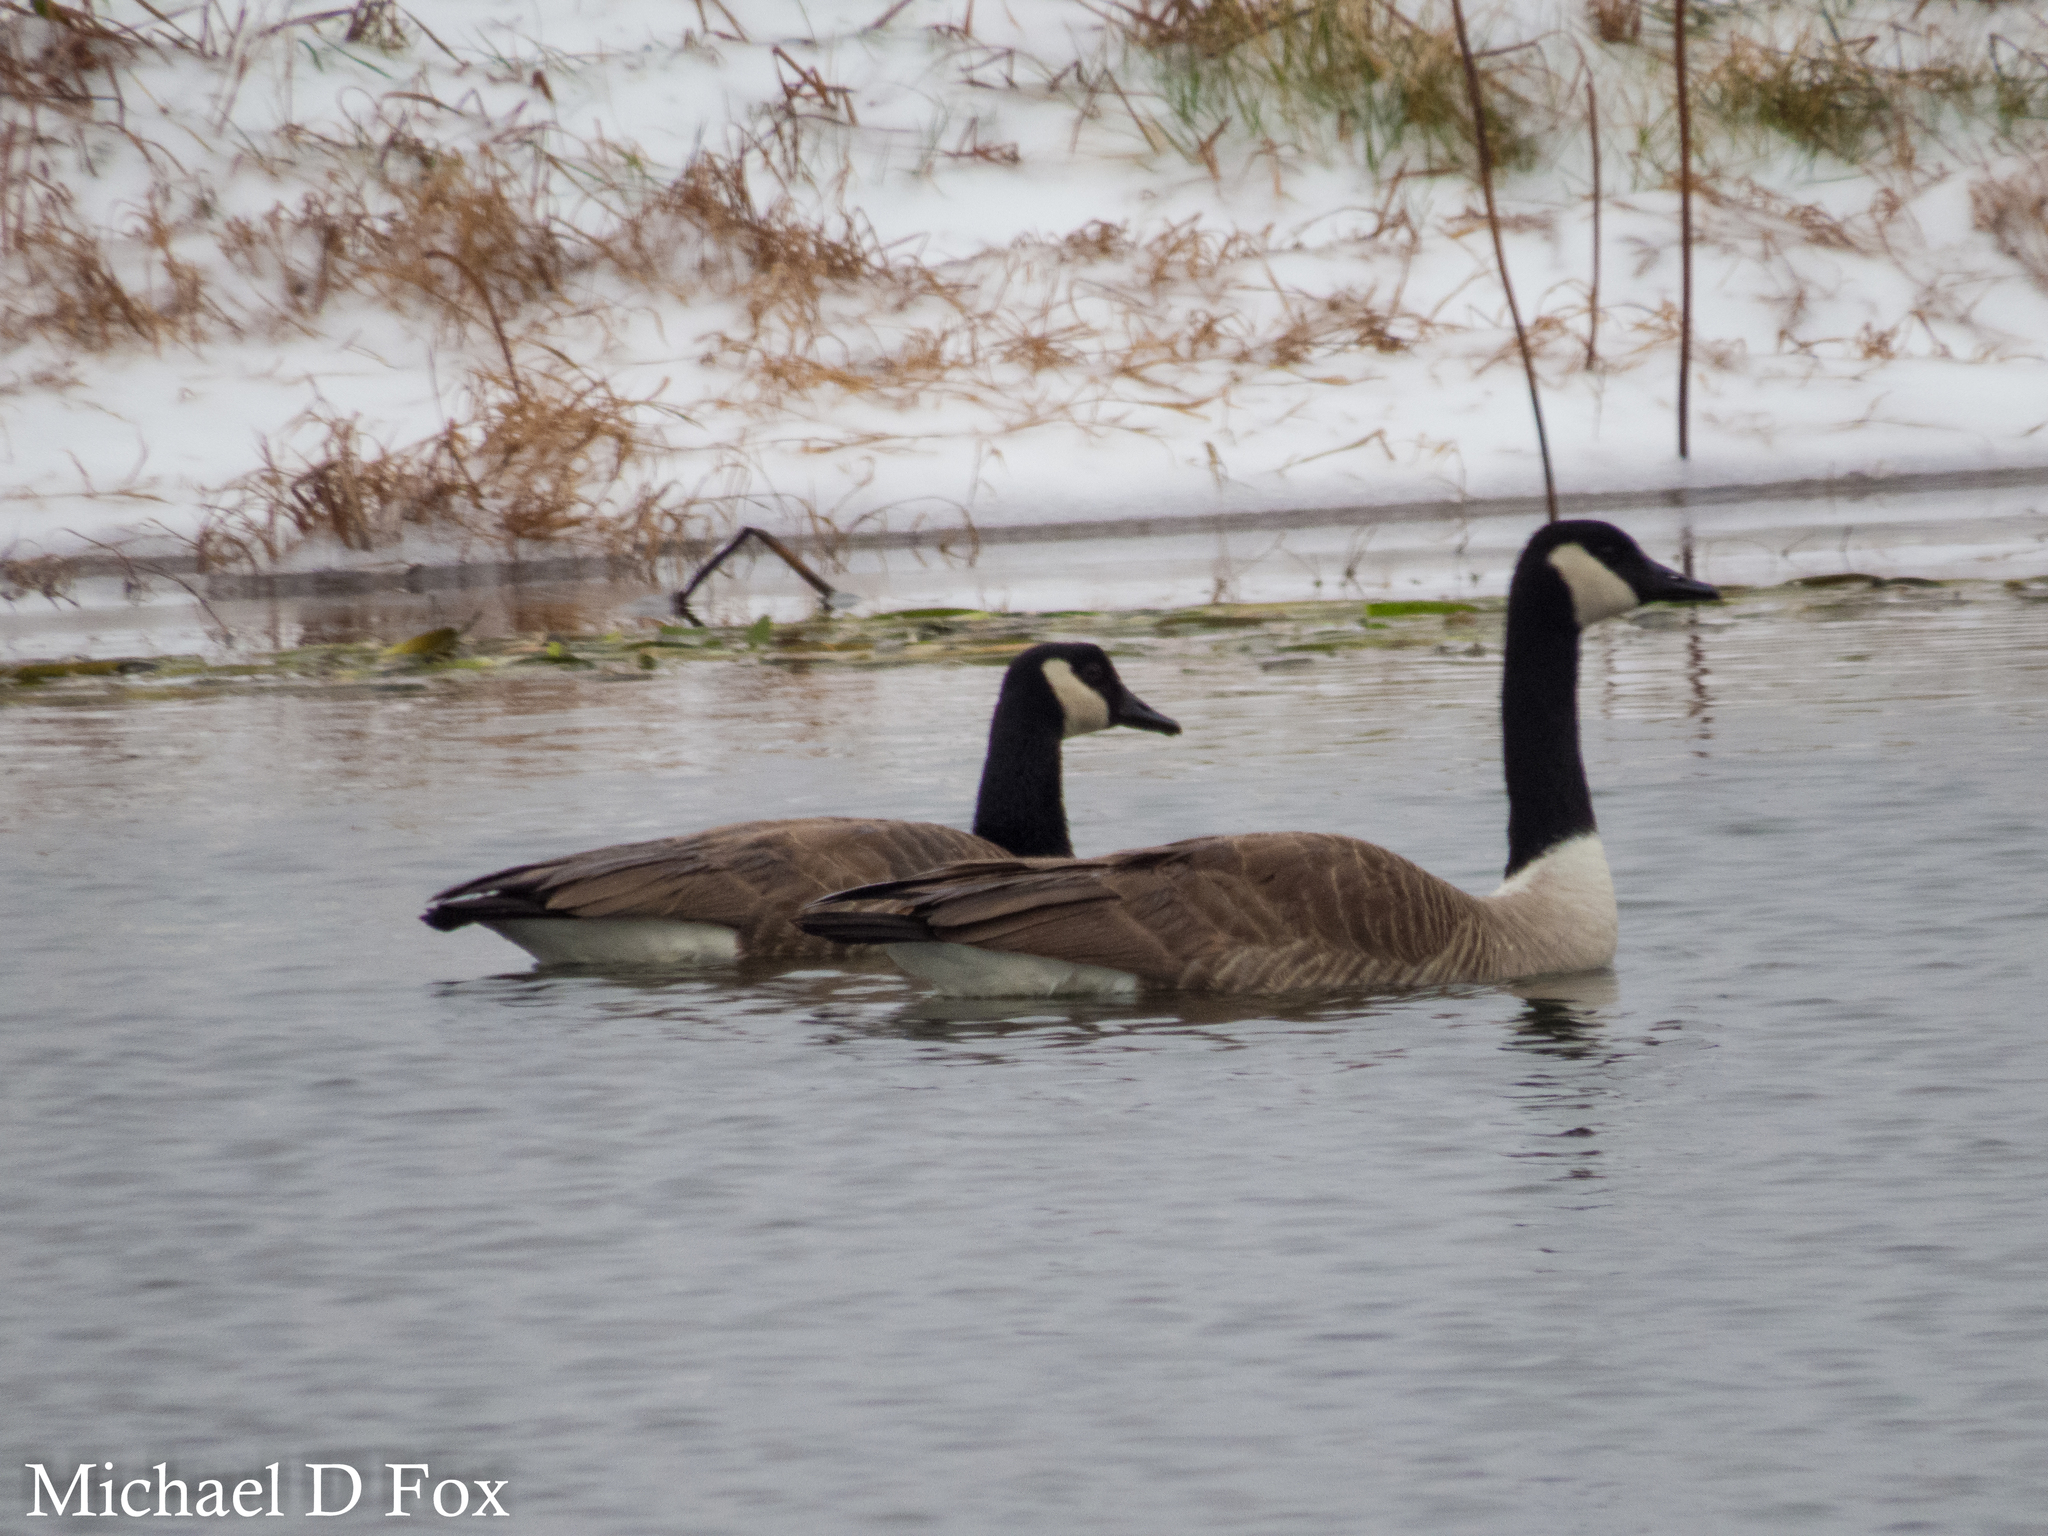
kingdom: Animalia
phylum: Chordata
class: Aves
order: Anseriformes
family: Anatidae
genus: Branta
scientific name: Branta canadensis
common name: Canada goose
